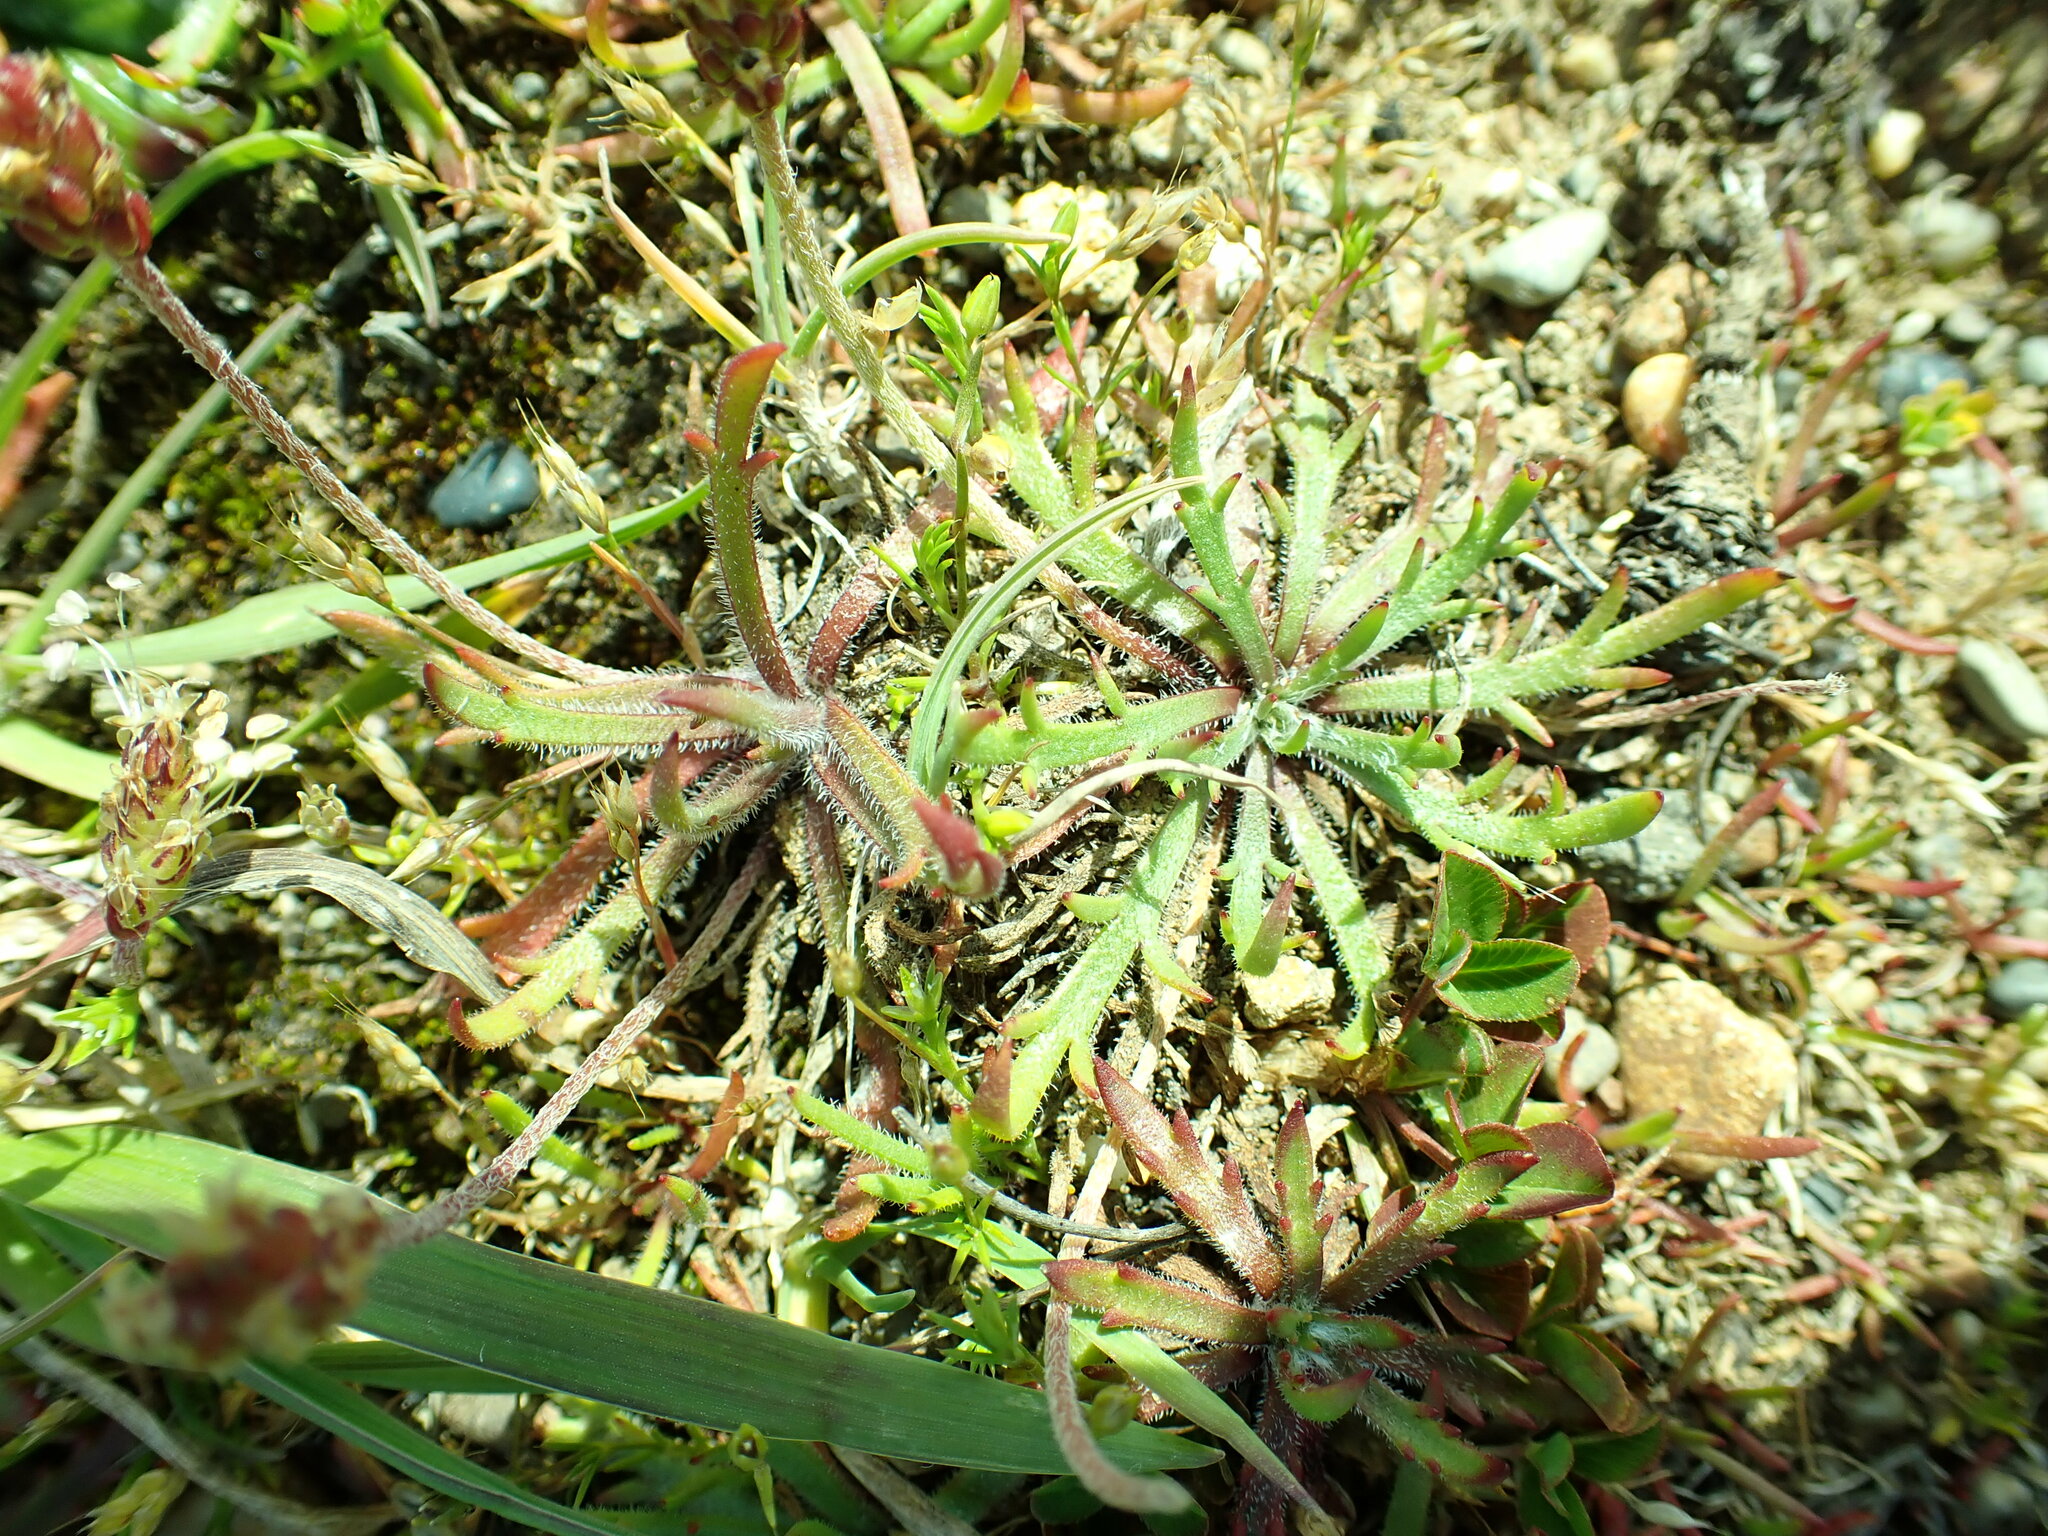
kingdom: Plantae
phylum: Tracheophyta
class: Magnoliopsida
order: Lamiales
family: Plantaginaceae
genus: Plantago
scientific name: Plantago coronopus
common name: Buck's-horn plantain
